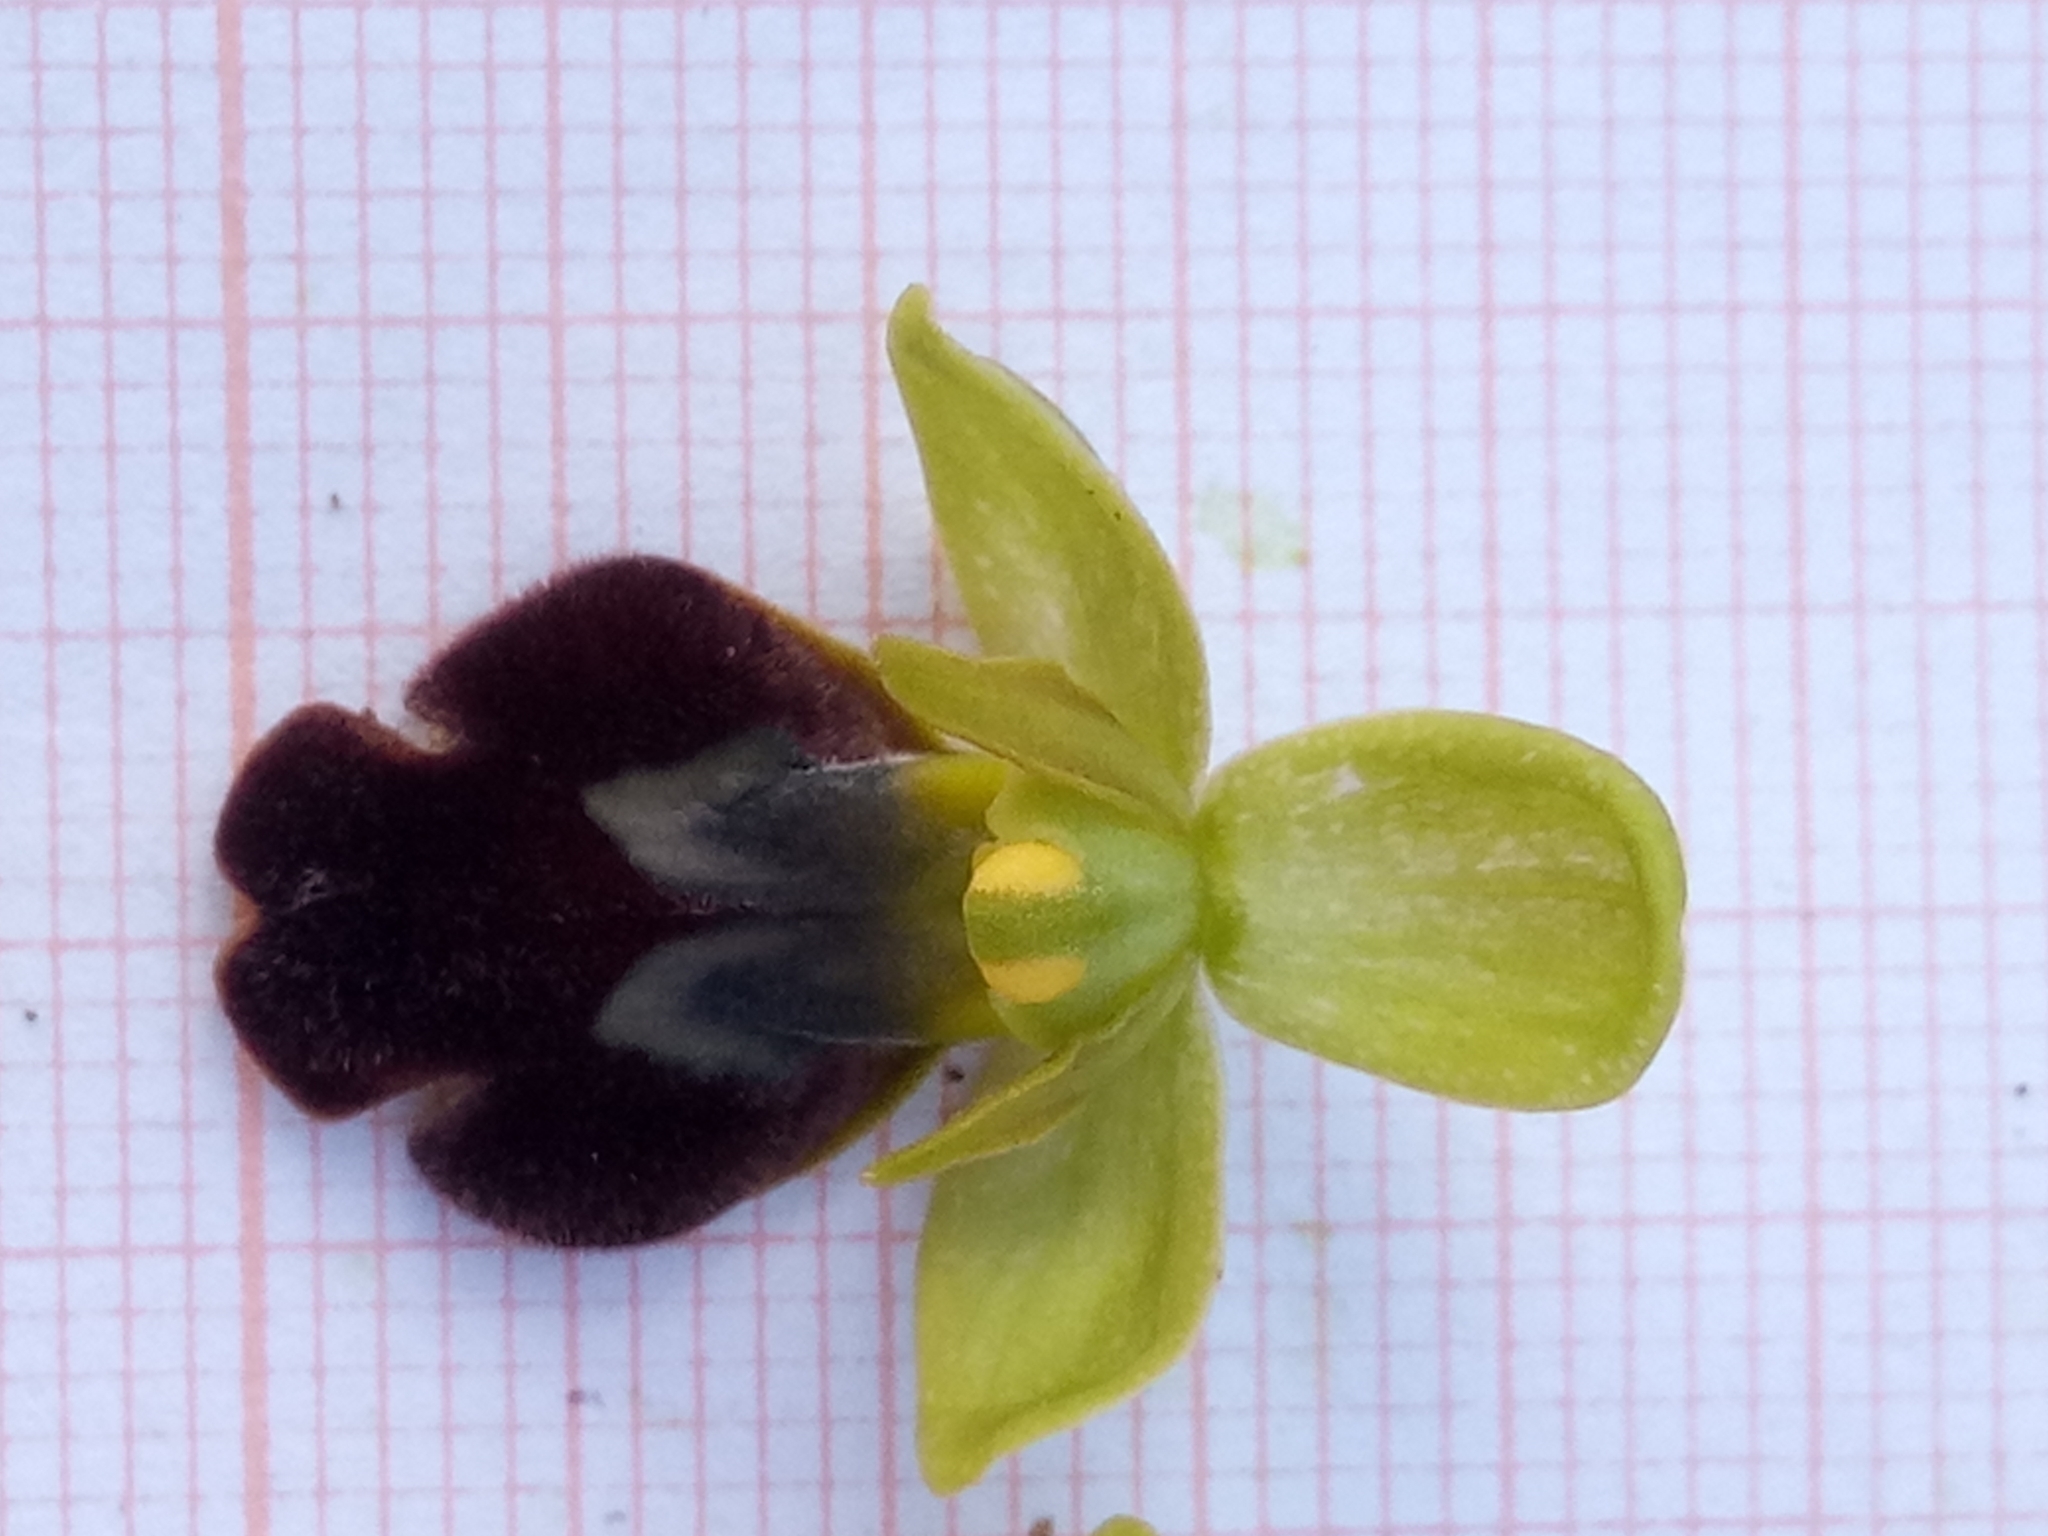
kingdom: Plantae
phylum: Tracheophyta
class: Liliopsida
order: Asparagales
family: Orchidaceae
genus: Ophrys
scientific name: Ophrys fusca
